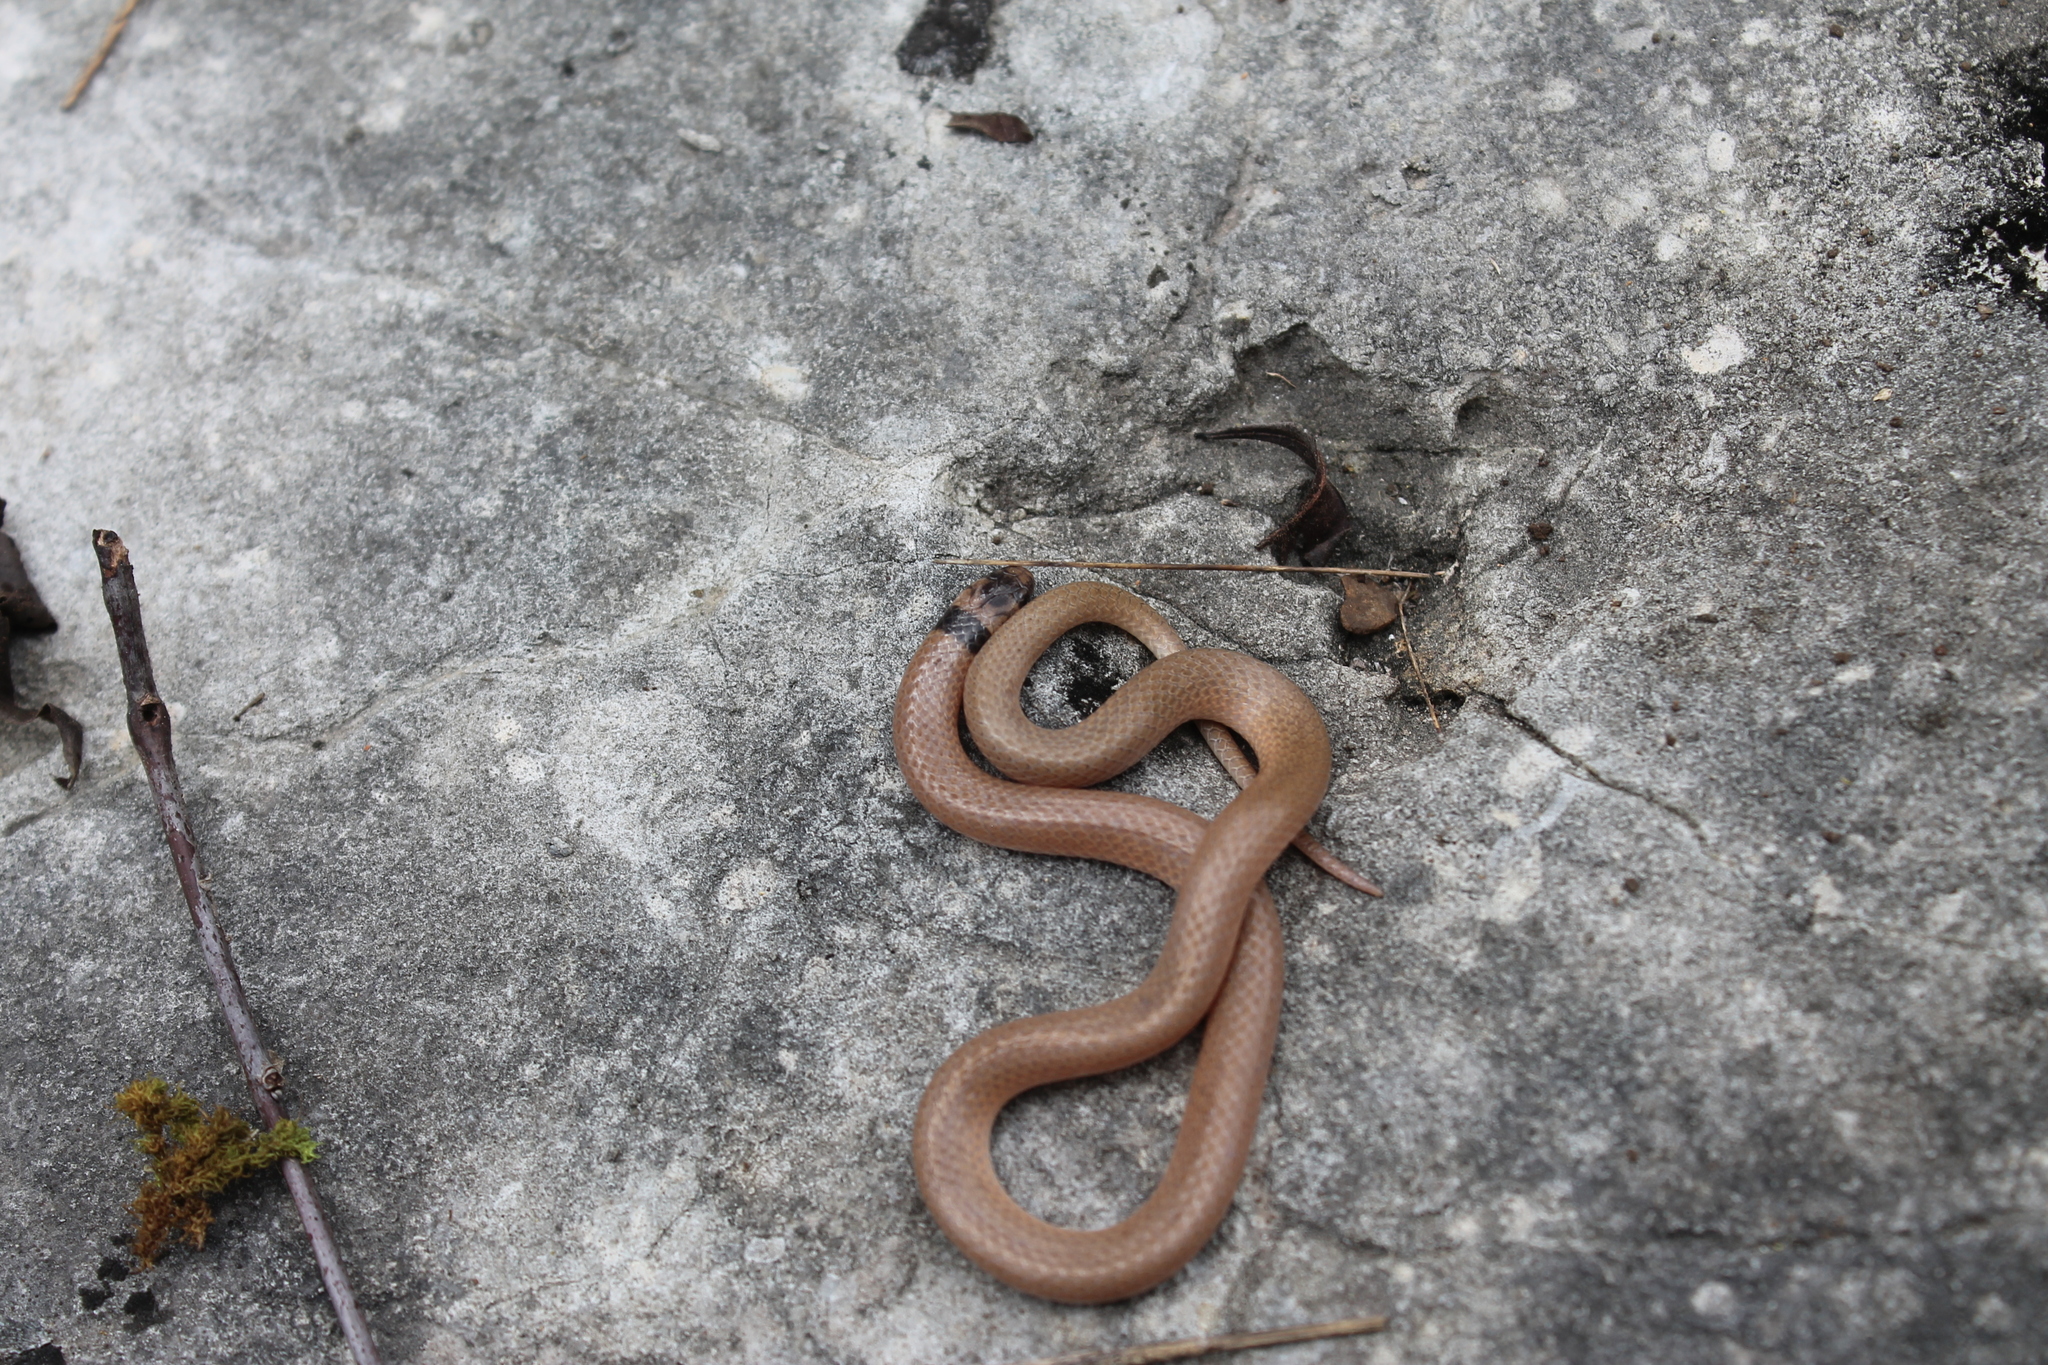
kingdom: Animalia
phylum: Chordata
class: Squamata
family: Colubridae
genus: Tantilla
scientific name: Tantilla coronata
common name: Southeastern crowned snake
